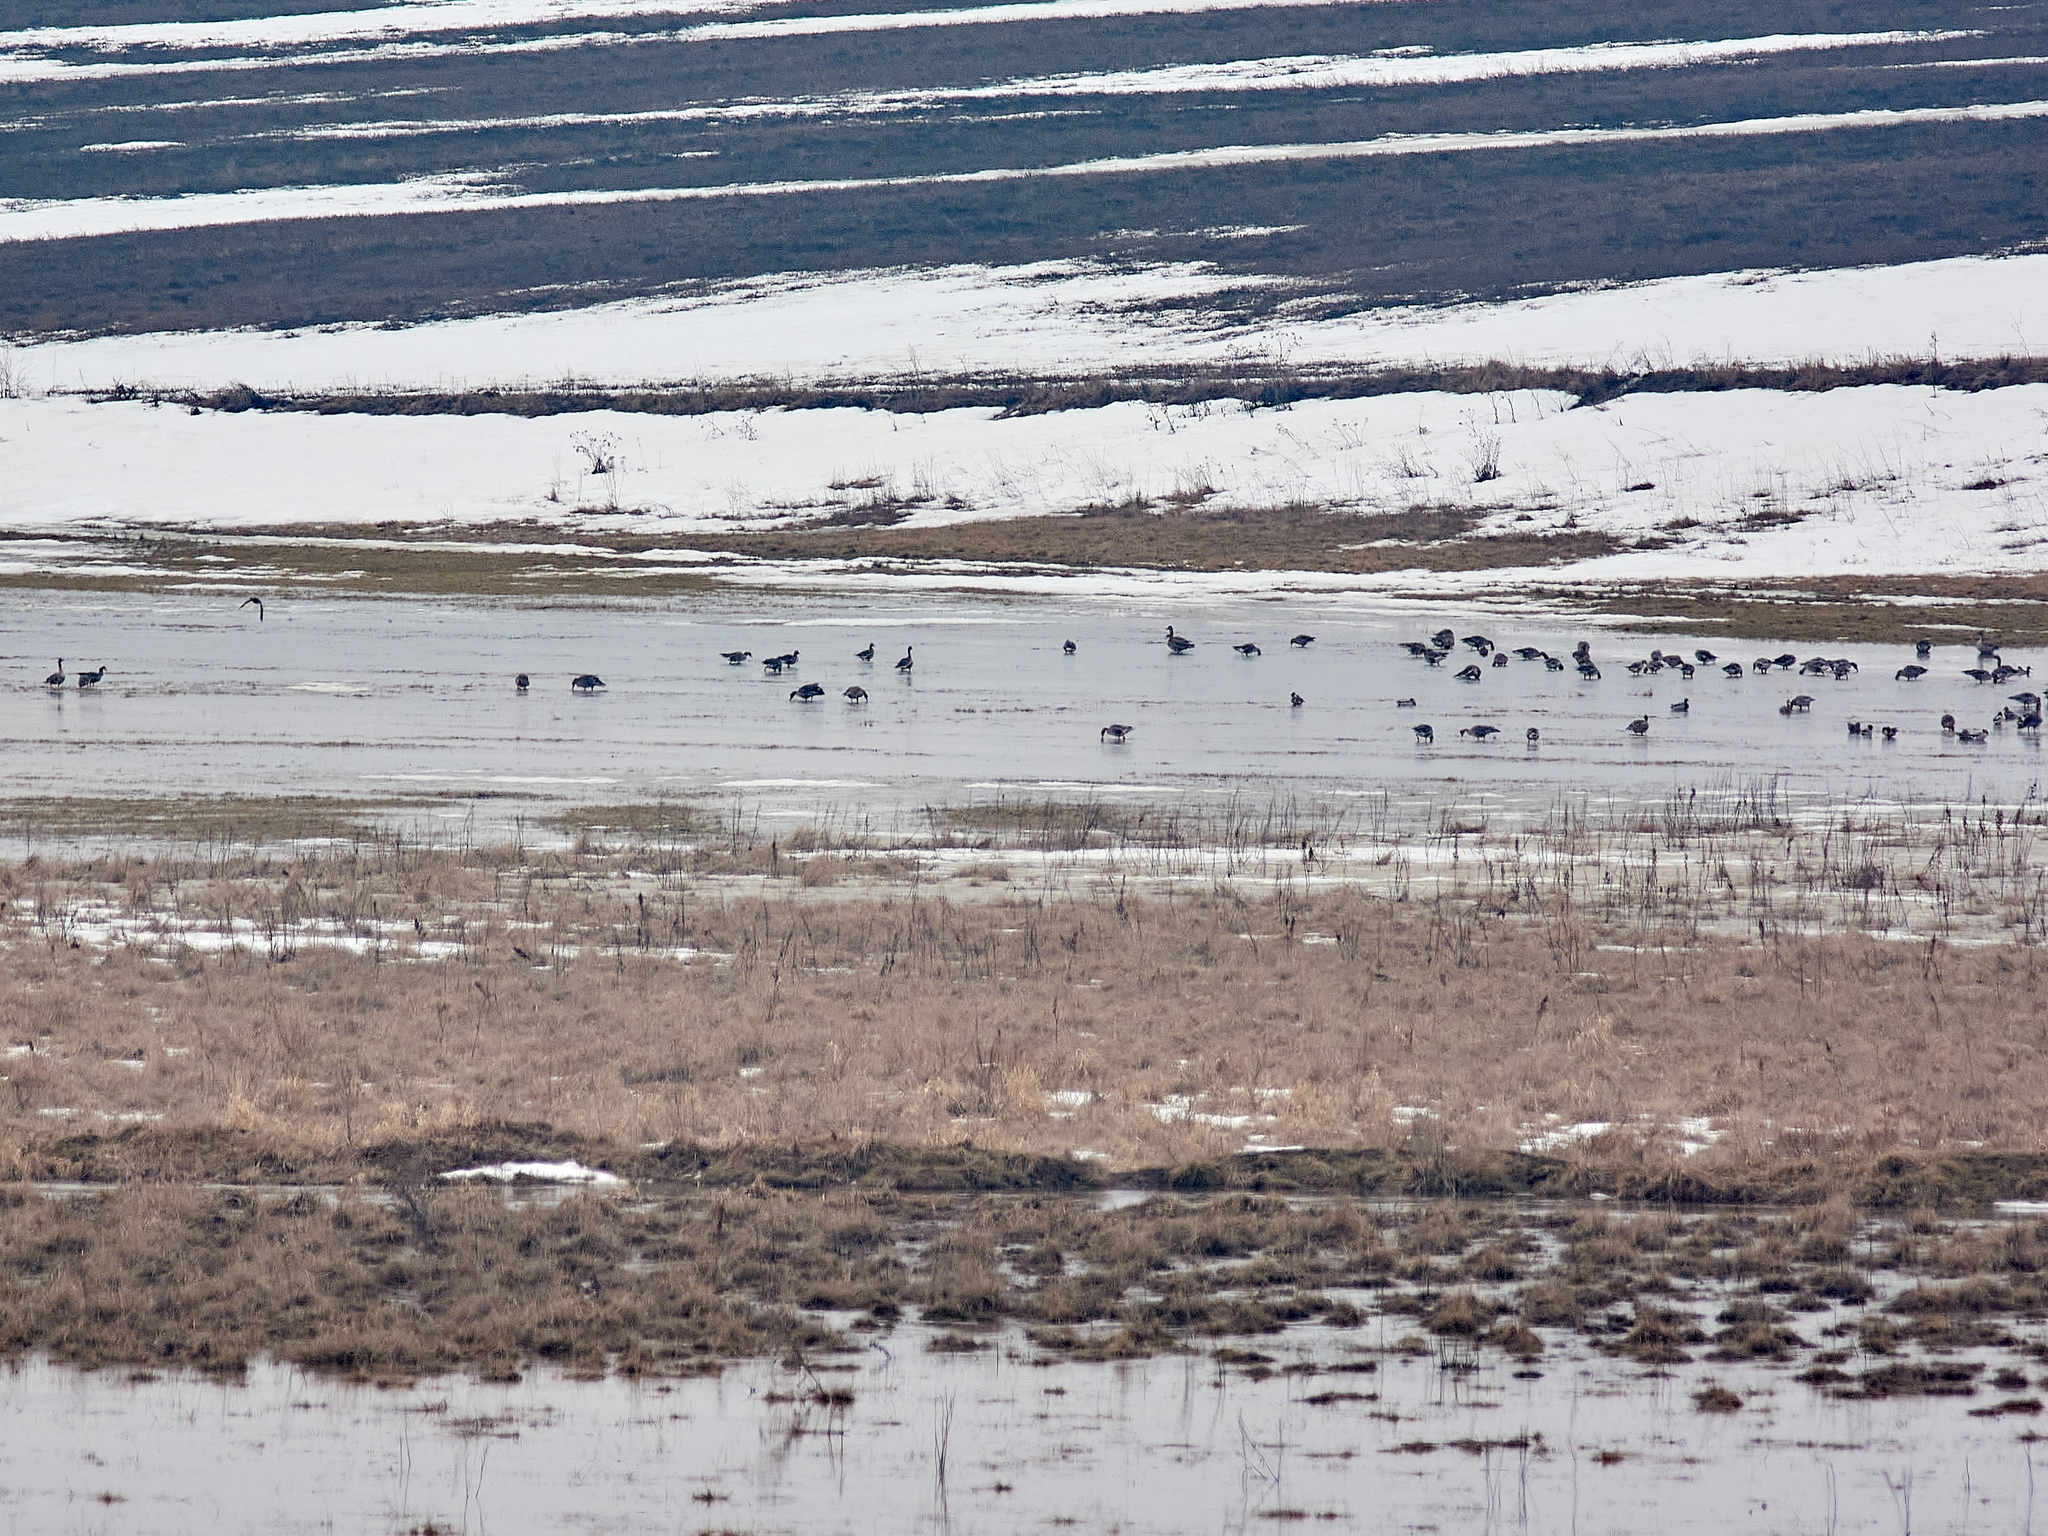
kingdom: Animalia
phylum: Chordata
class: Aves
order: Anseriformes
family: Anatidae
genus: Anser
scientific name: Anser albifrons
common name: Greater white-fronted goose
